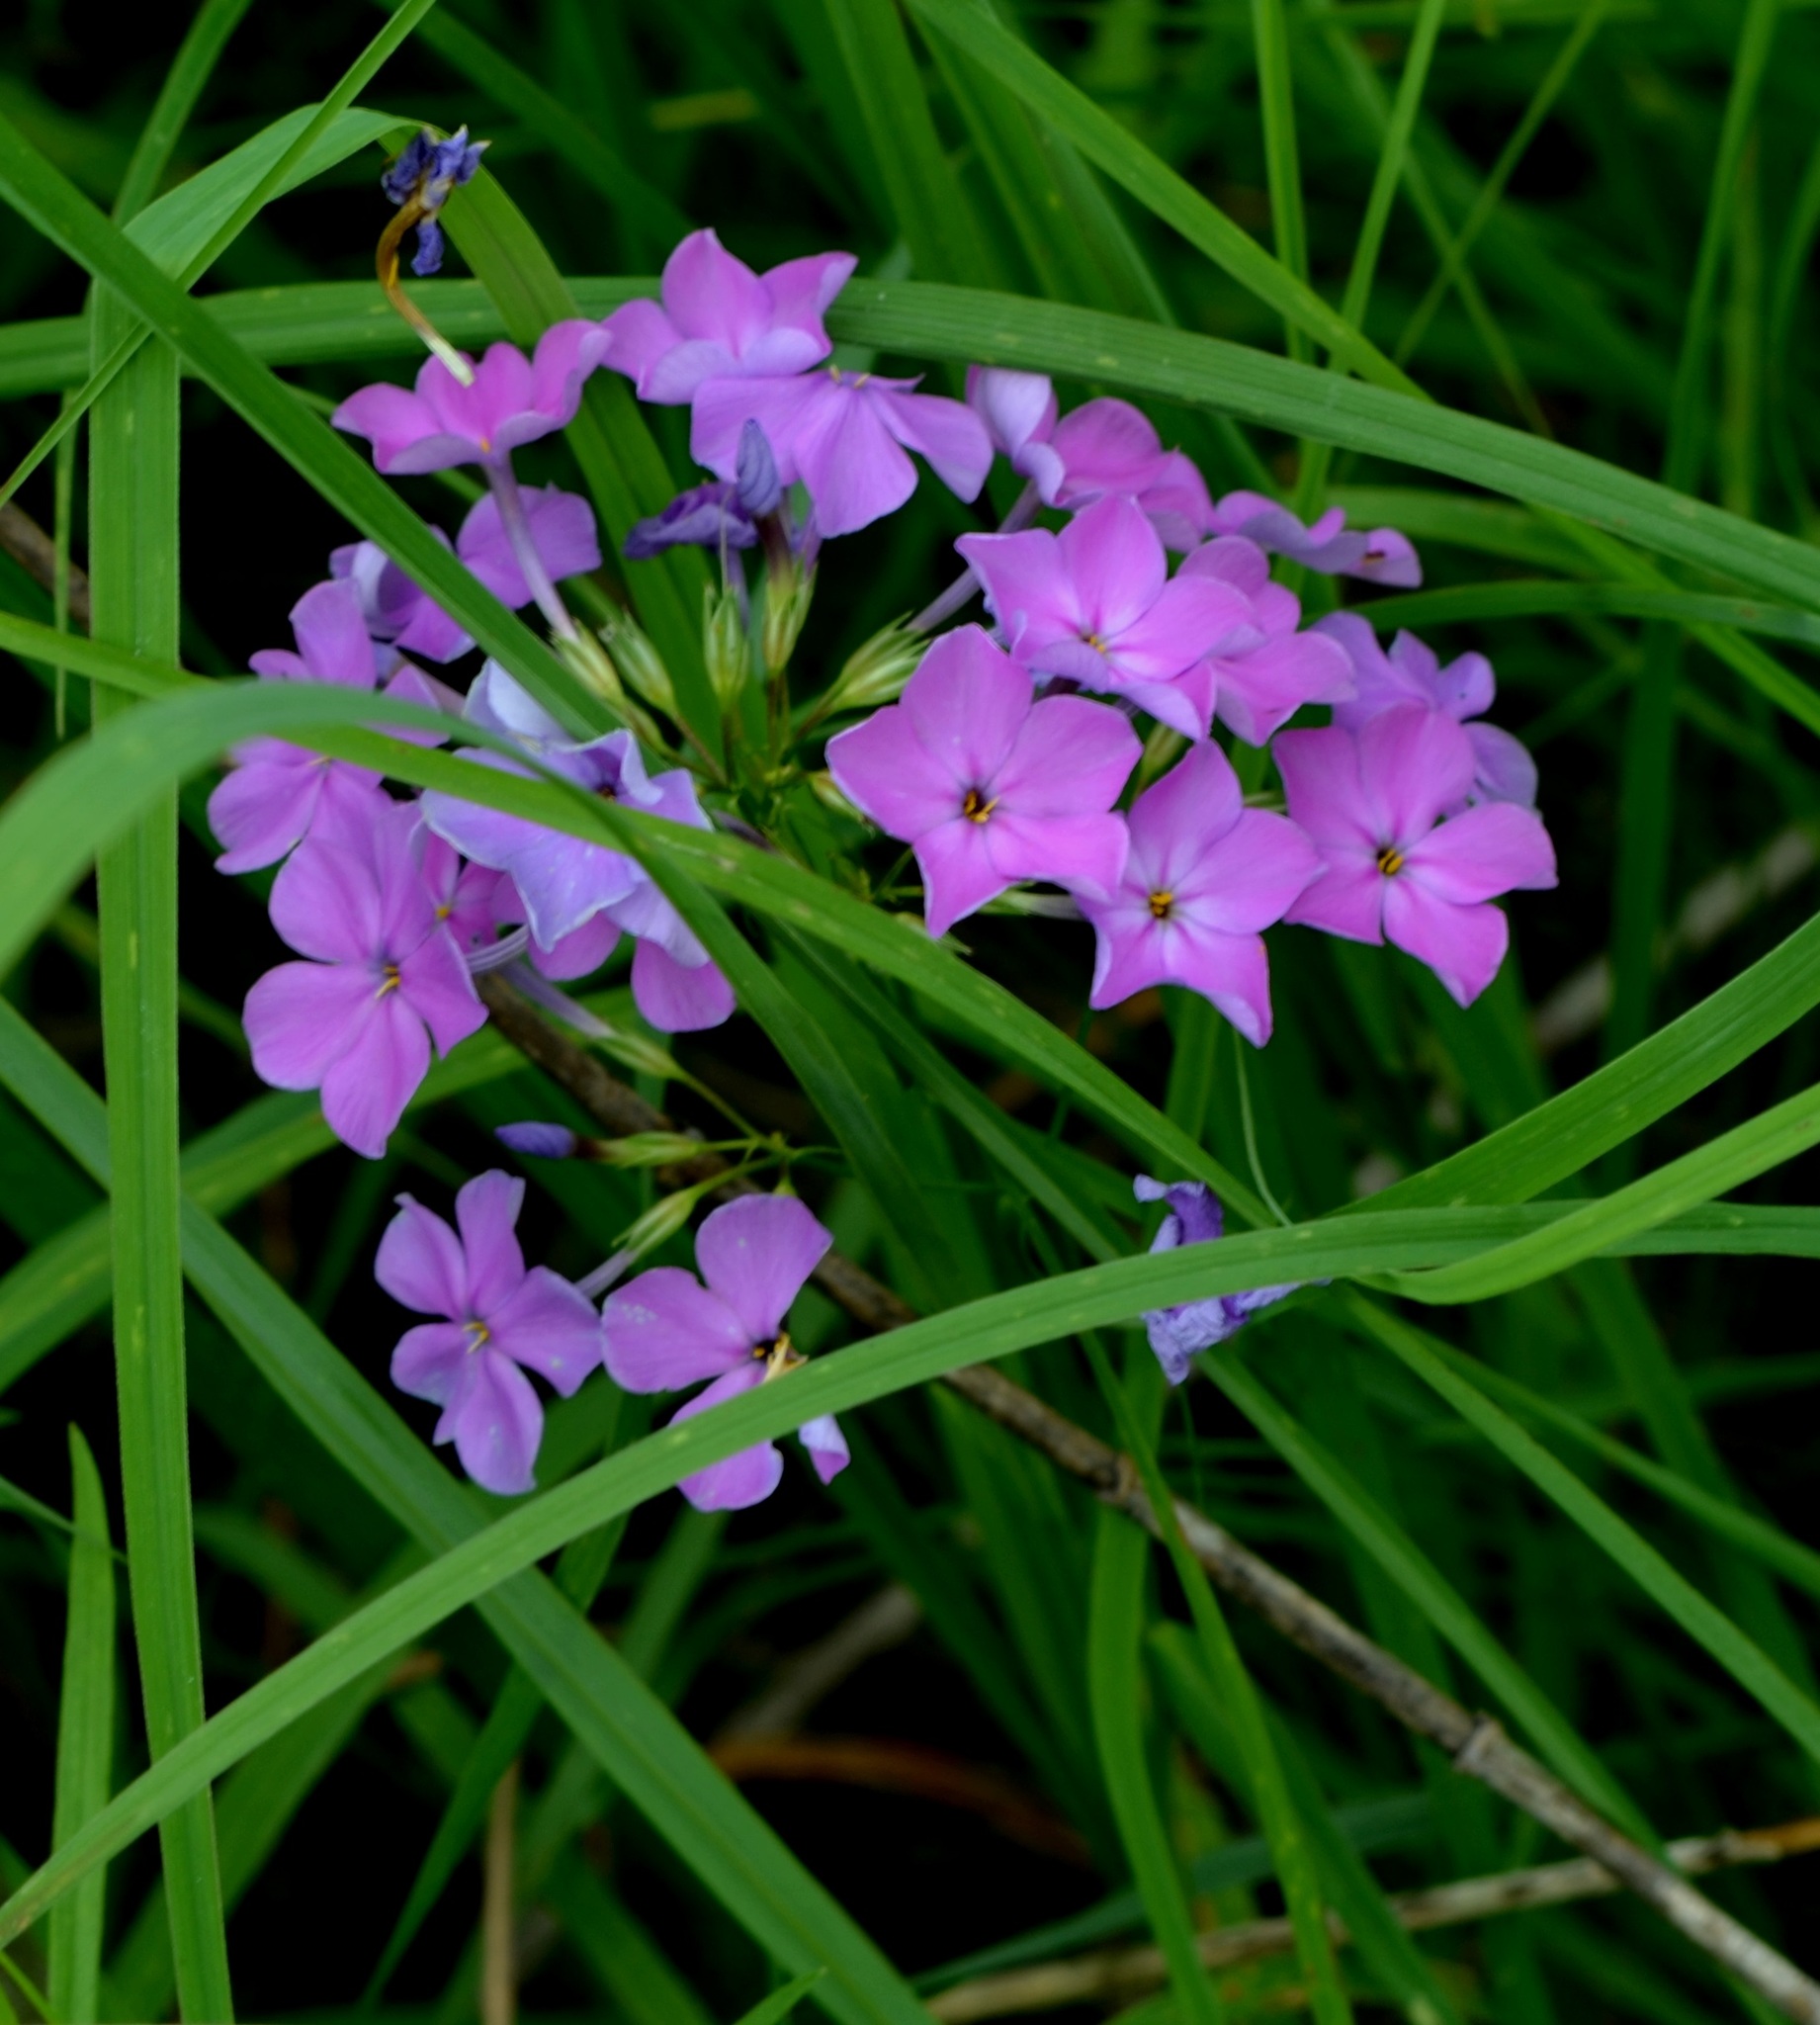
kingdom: Plantae
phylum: Tracheophyta
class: Magnoliopsida
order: Ericales
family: Polemoniaceae
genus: Phlox
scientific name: Phlox glaberrima
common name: Smooth phlox
